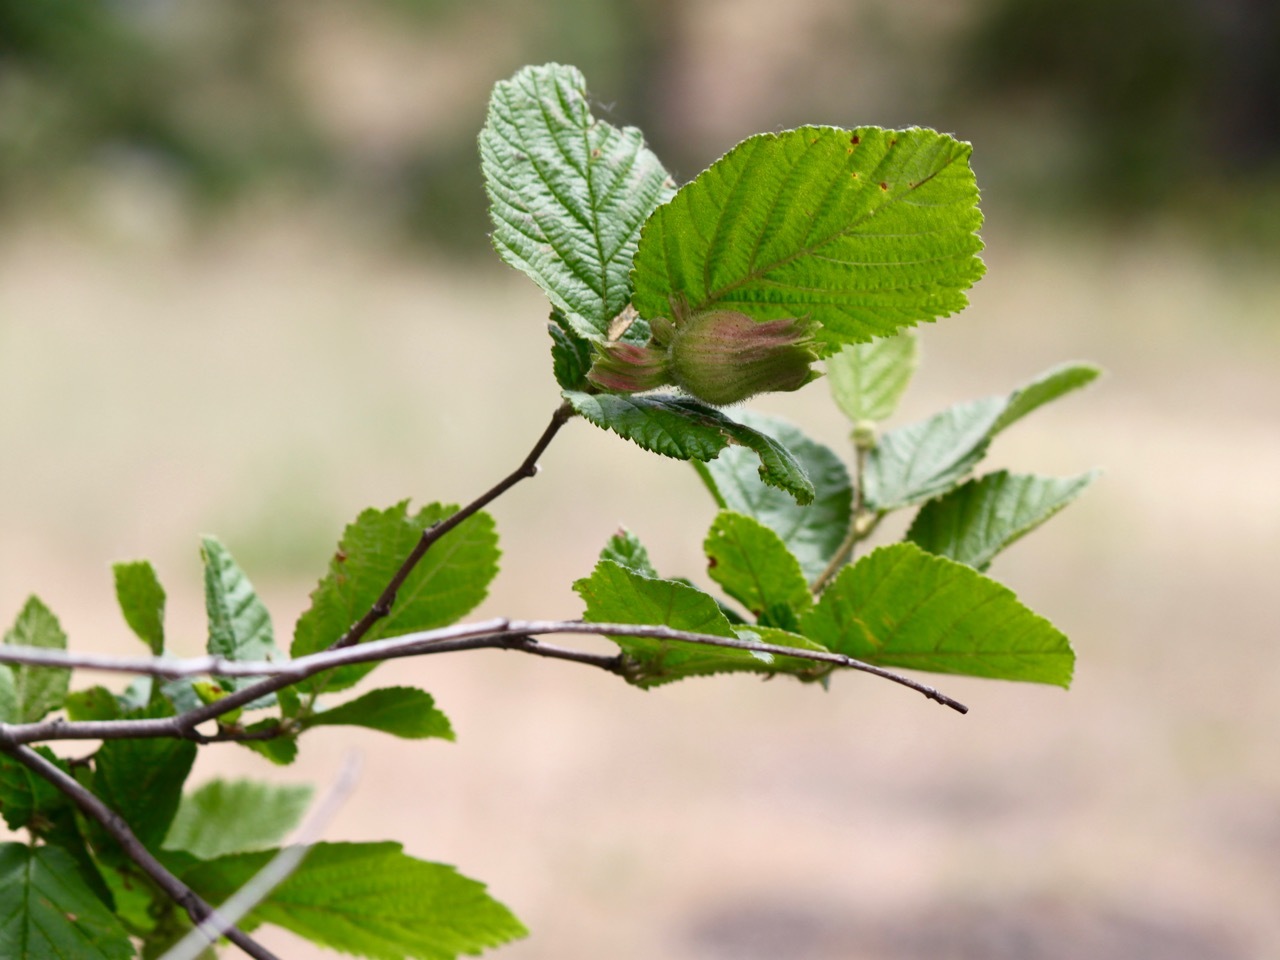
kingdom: Plantae
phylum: Tracheophyta
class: Magnoliopsida
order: Fagales
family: Betulaceae
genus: Corylus
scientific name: Corylus cornuta
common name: Beaked hazel
